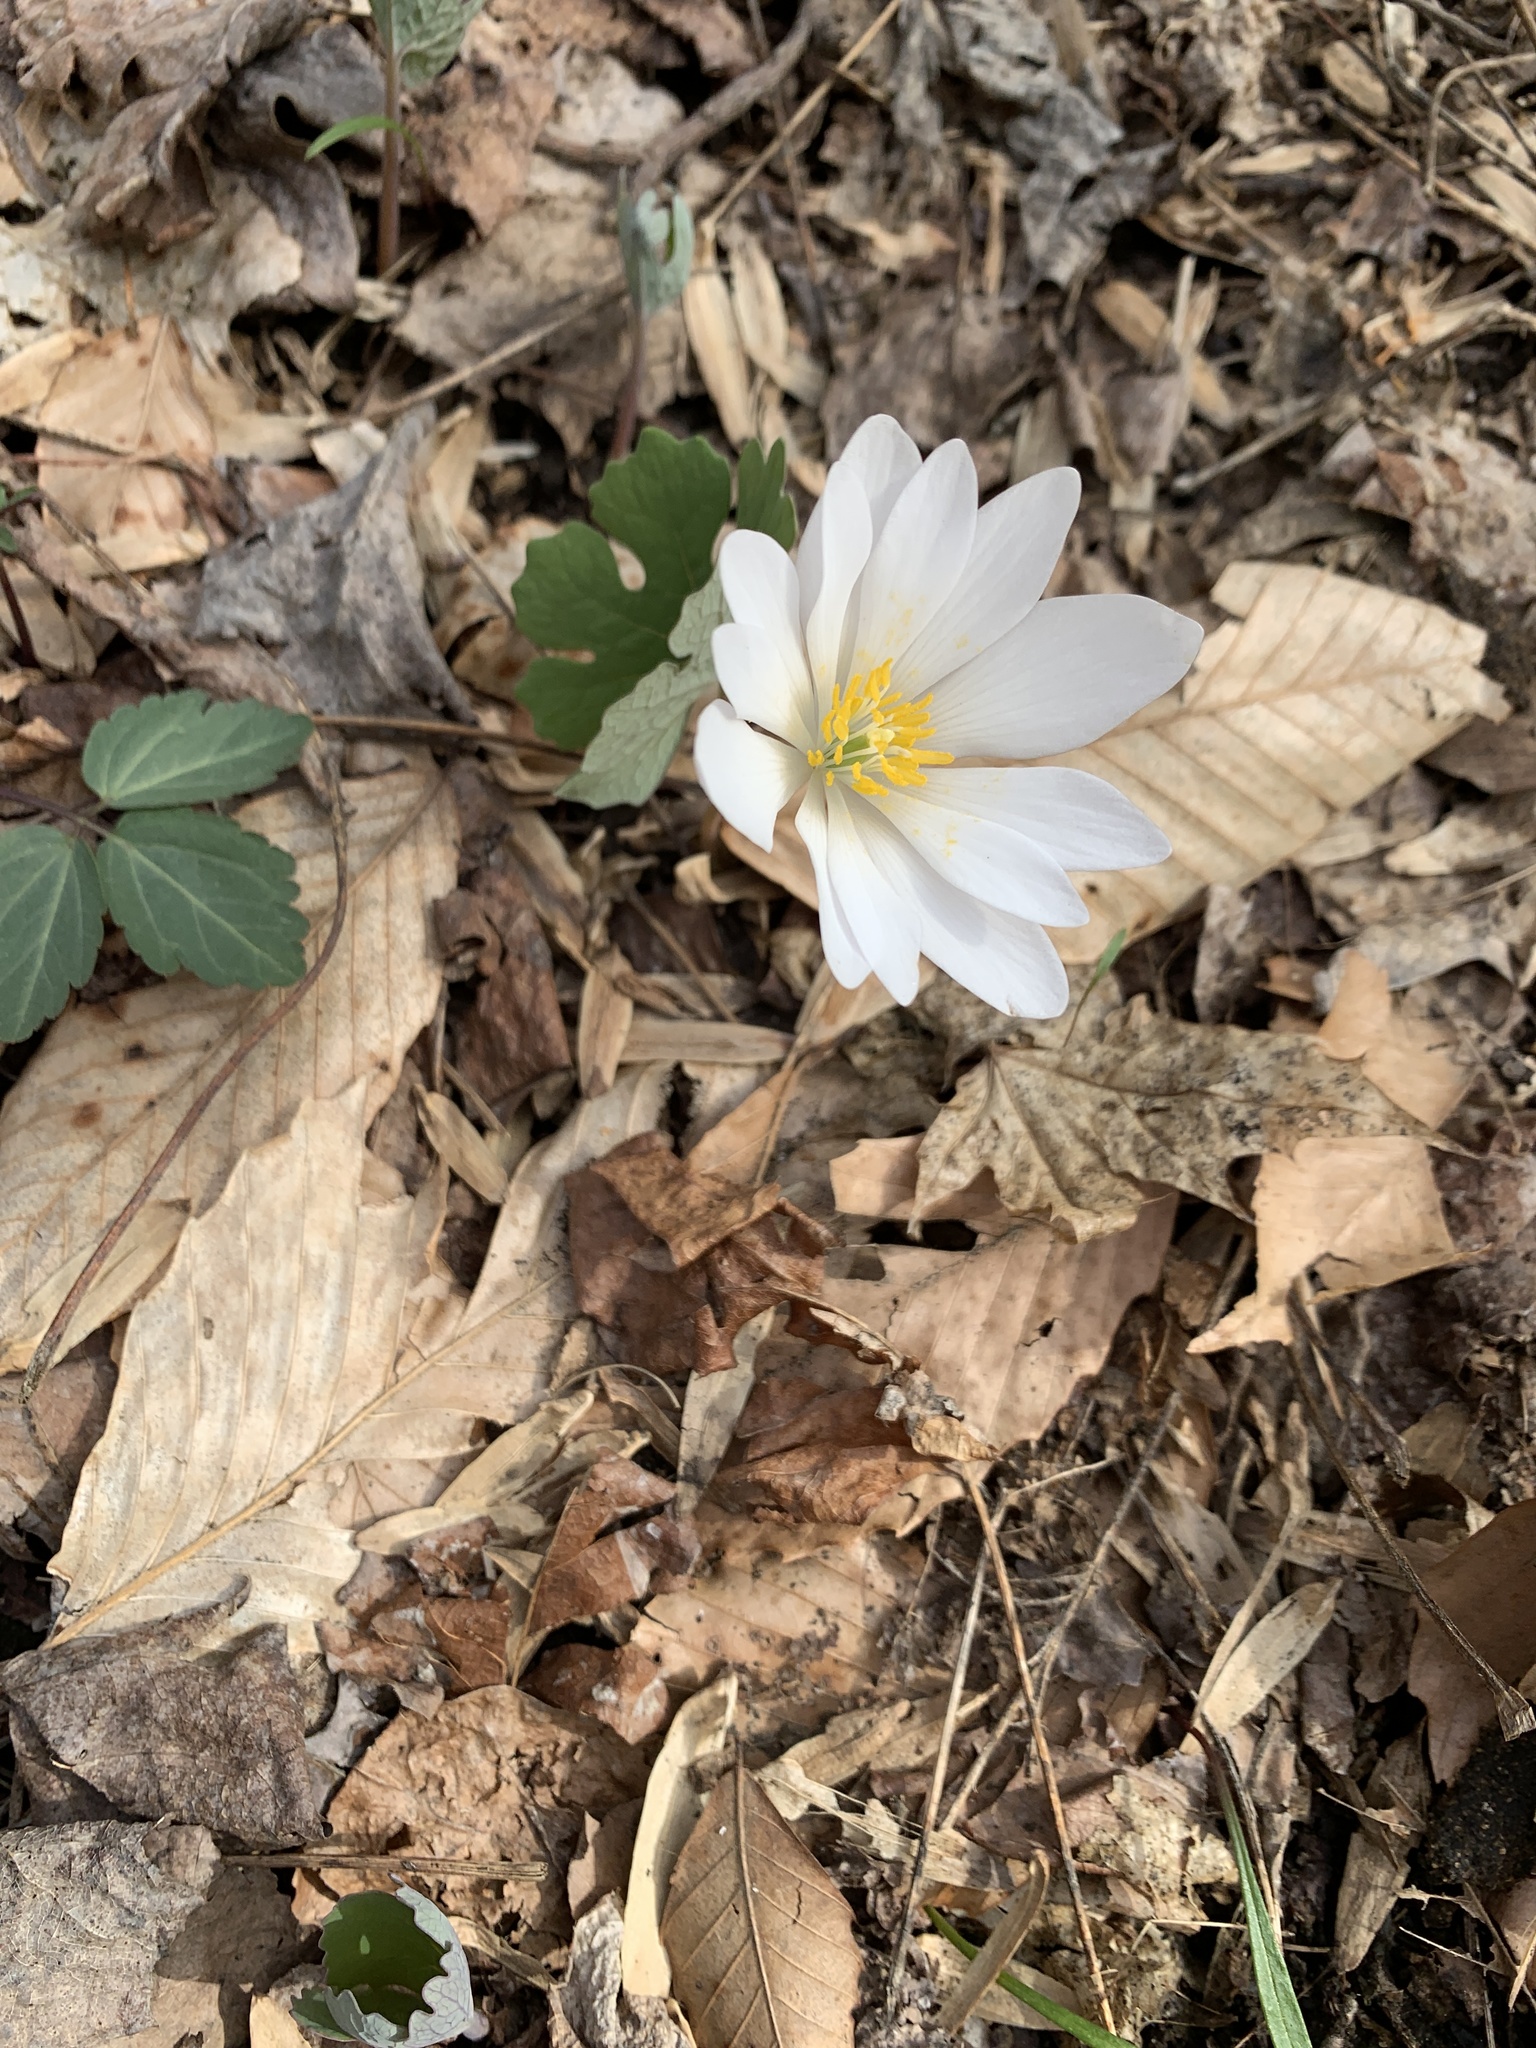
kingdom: Plantae
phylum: Tracheophyta
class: Magnoliopsida
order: Ranunculales
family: Papaveraceae
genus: Sanguinaria
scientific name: Sanguinaria canadensis
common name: Bloodroot
